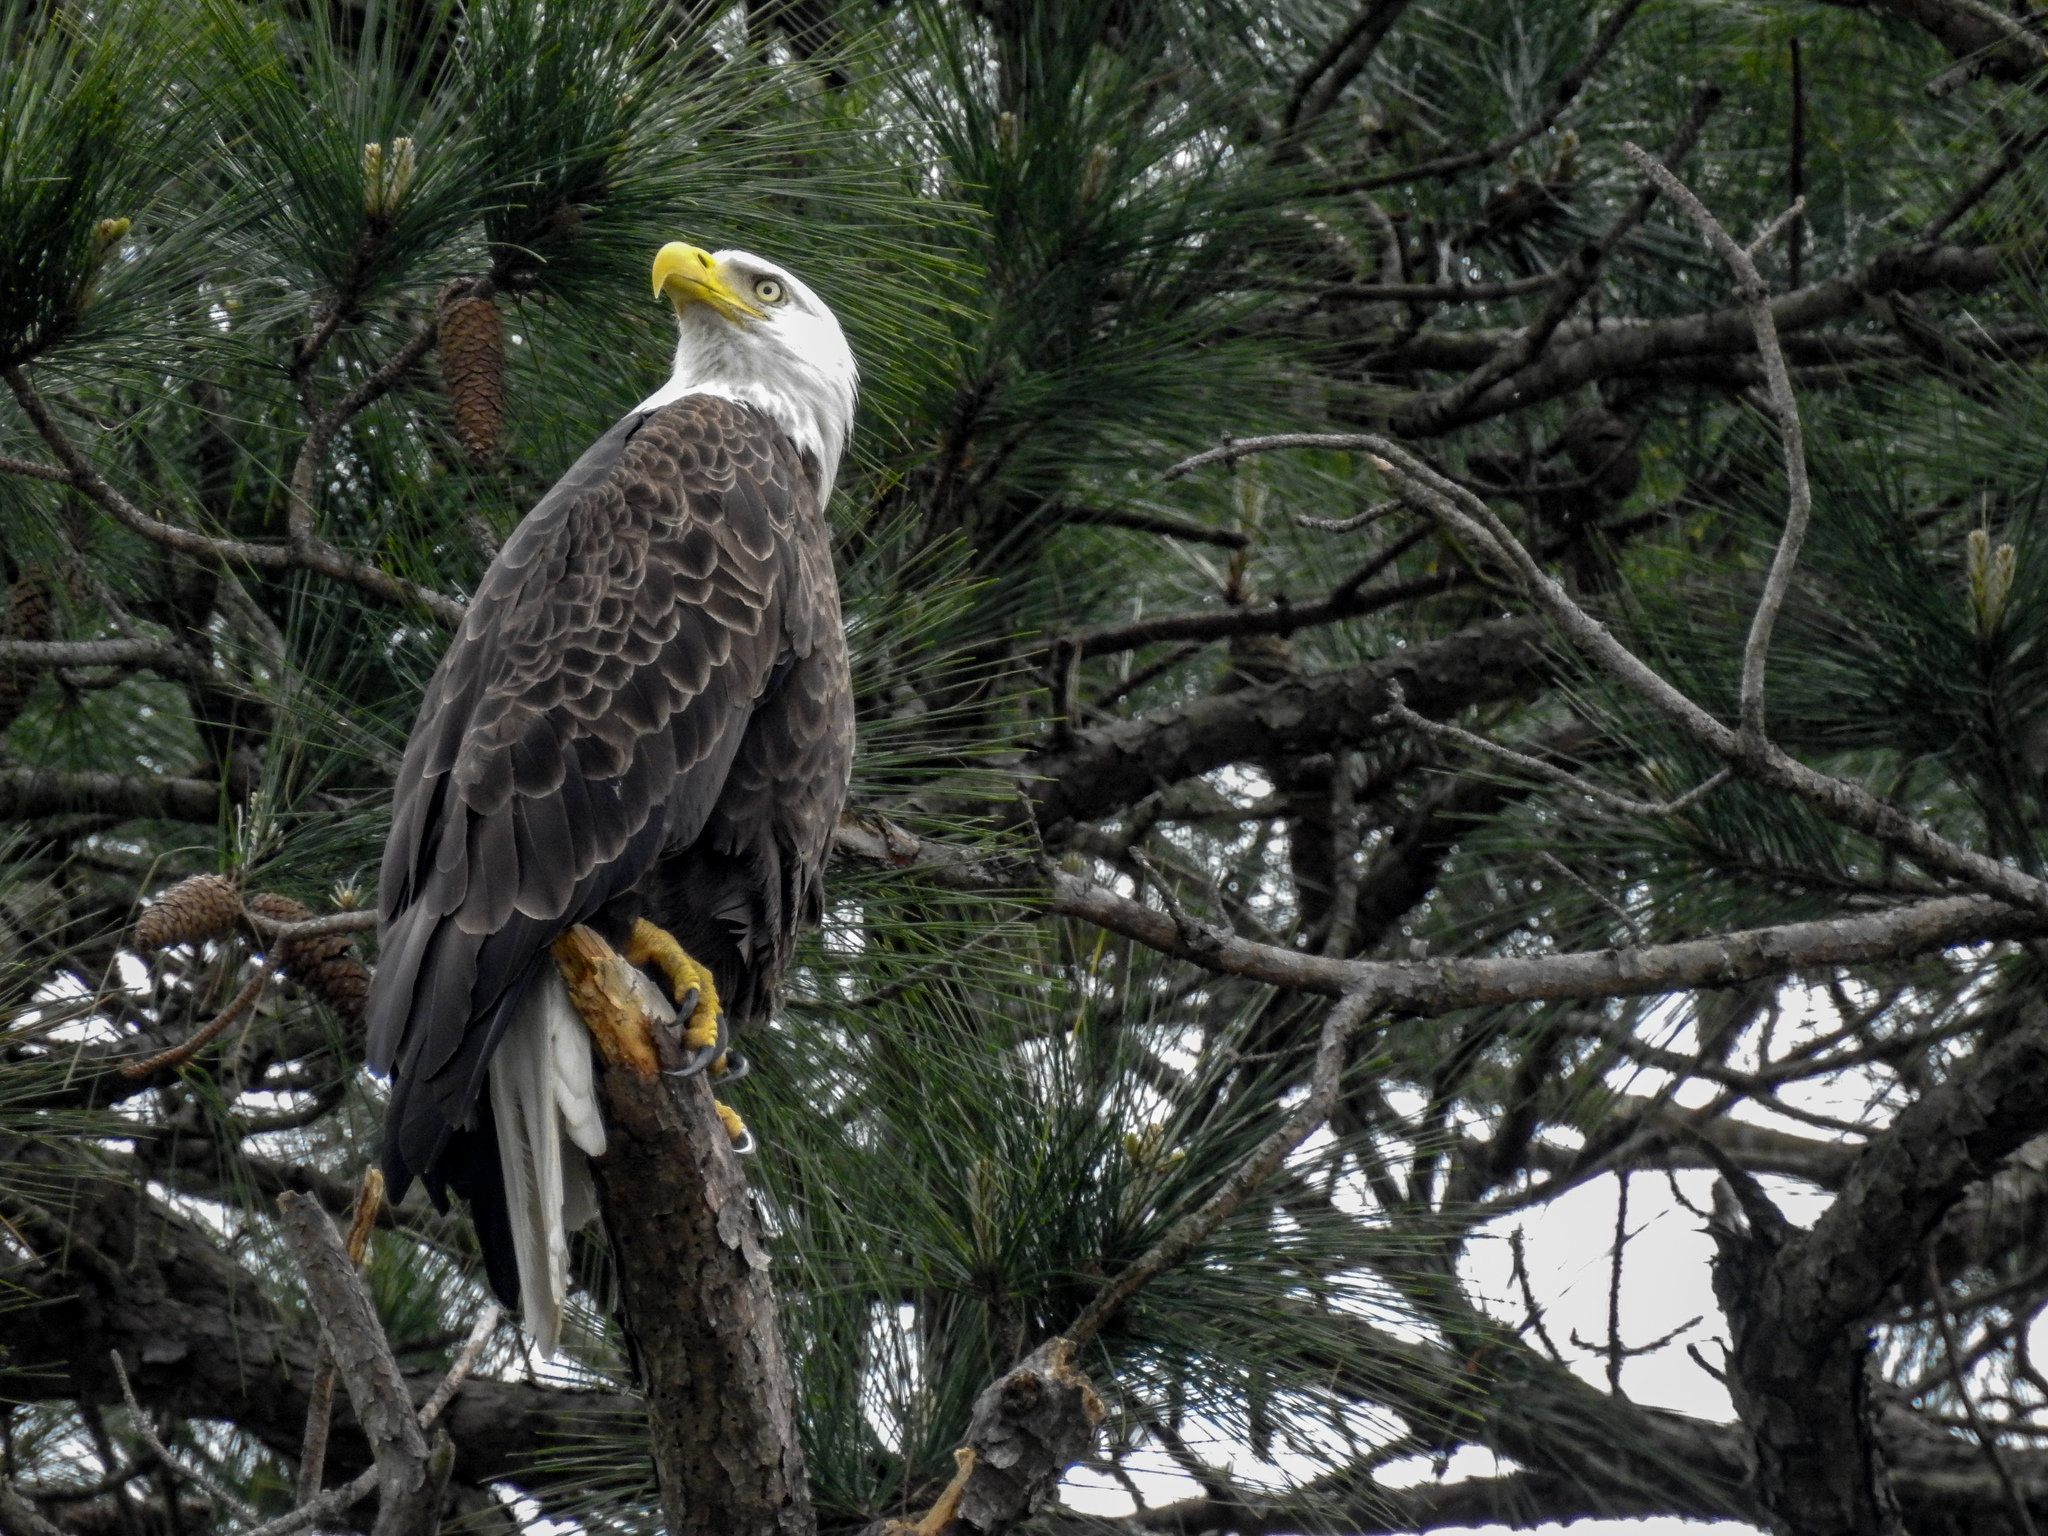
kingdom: Animalia
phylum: Chordata
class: Aves
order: Accipitriformes
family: Accipitridae
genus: Haliaeetus
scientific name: Haliaeetus leucocephalus
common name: Bald eagle
